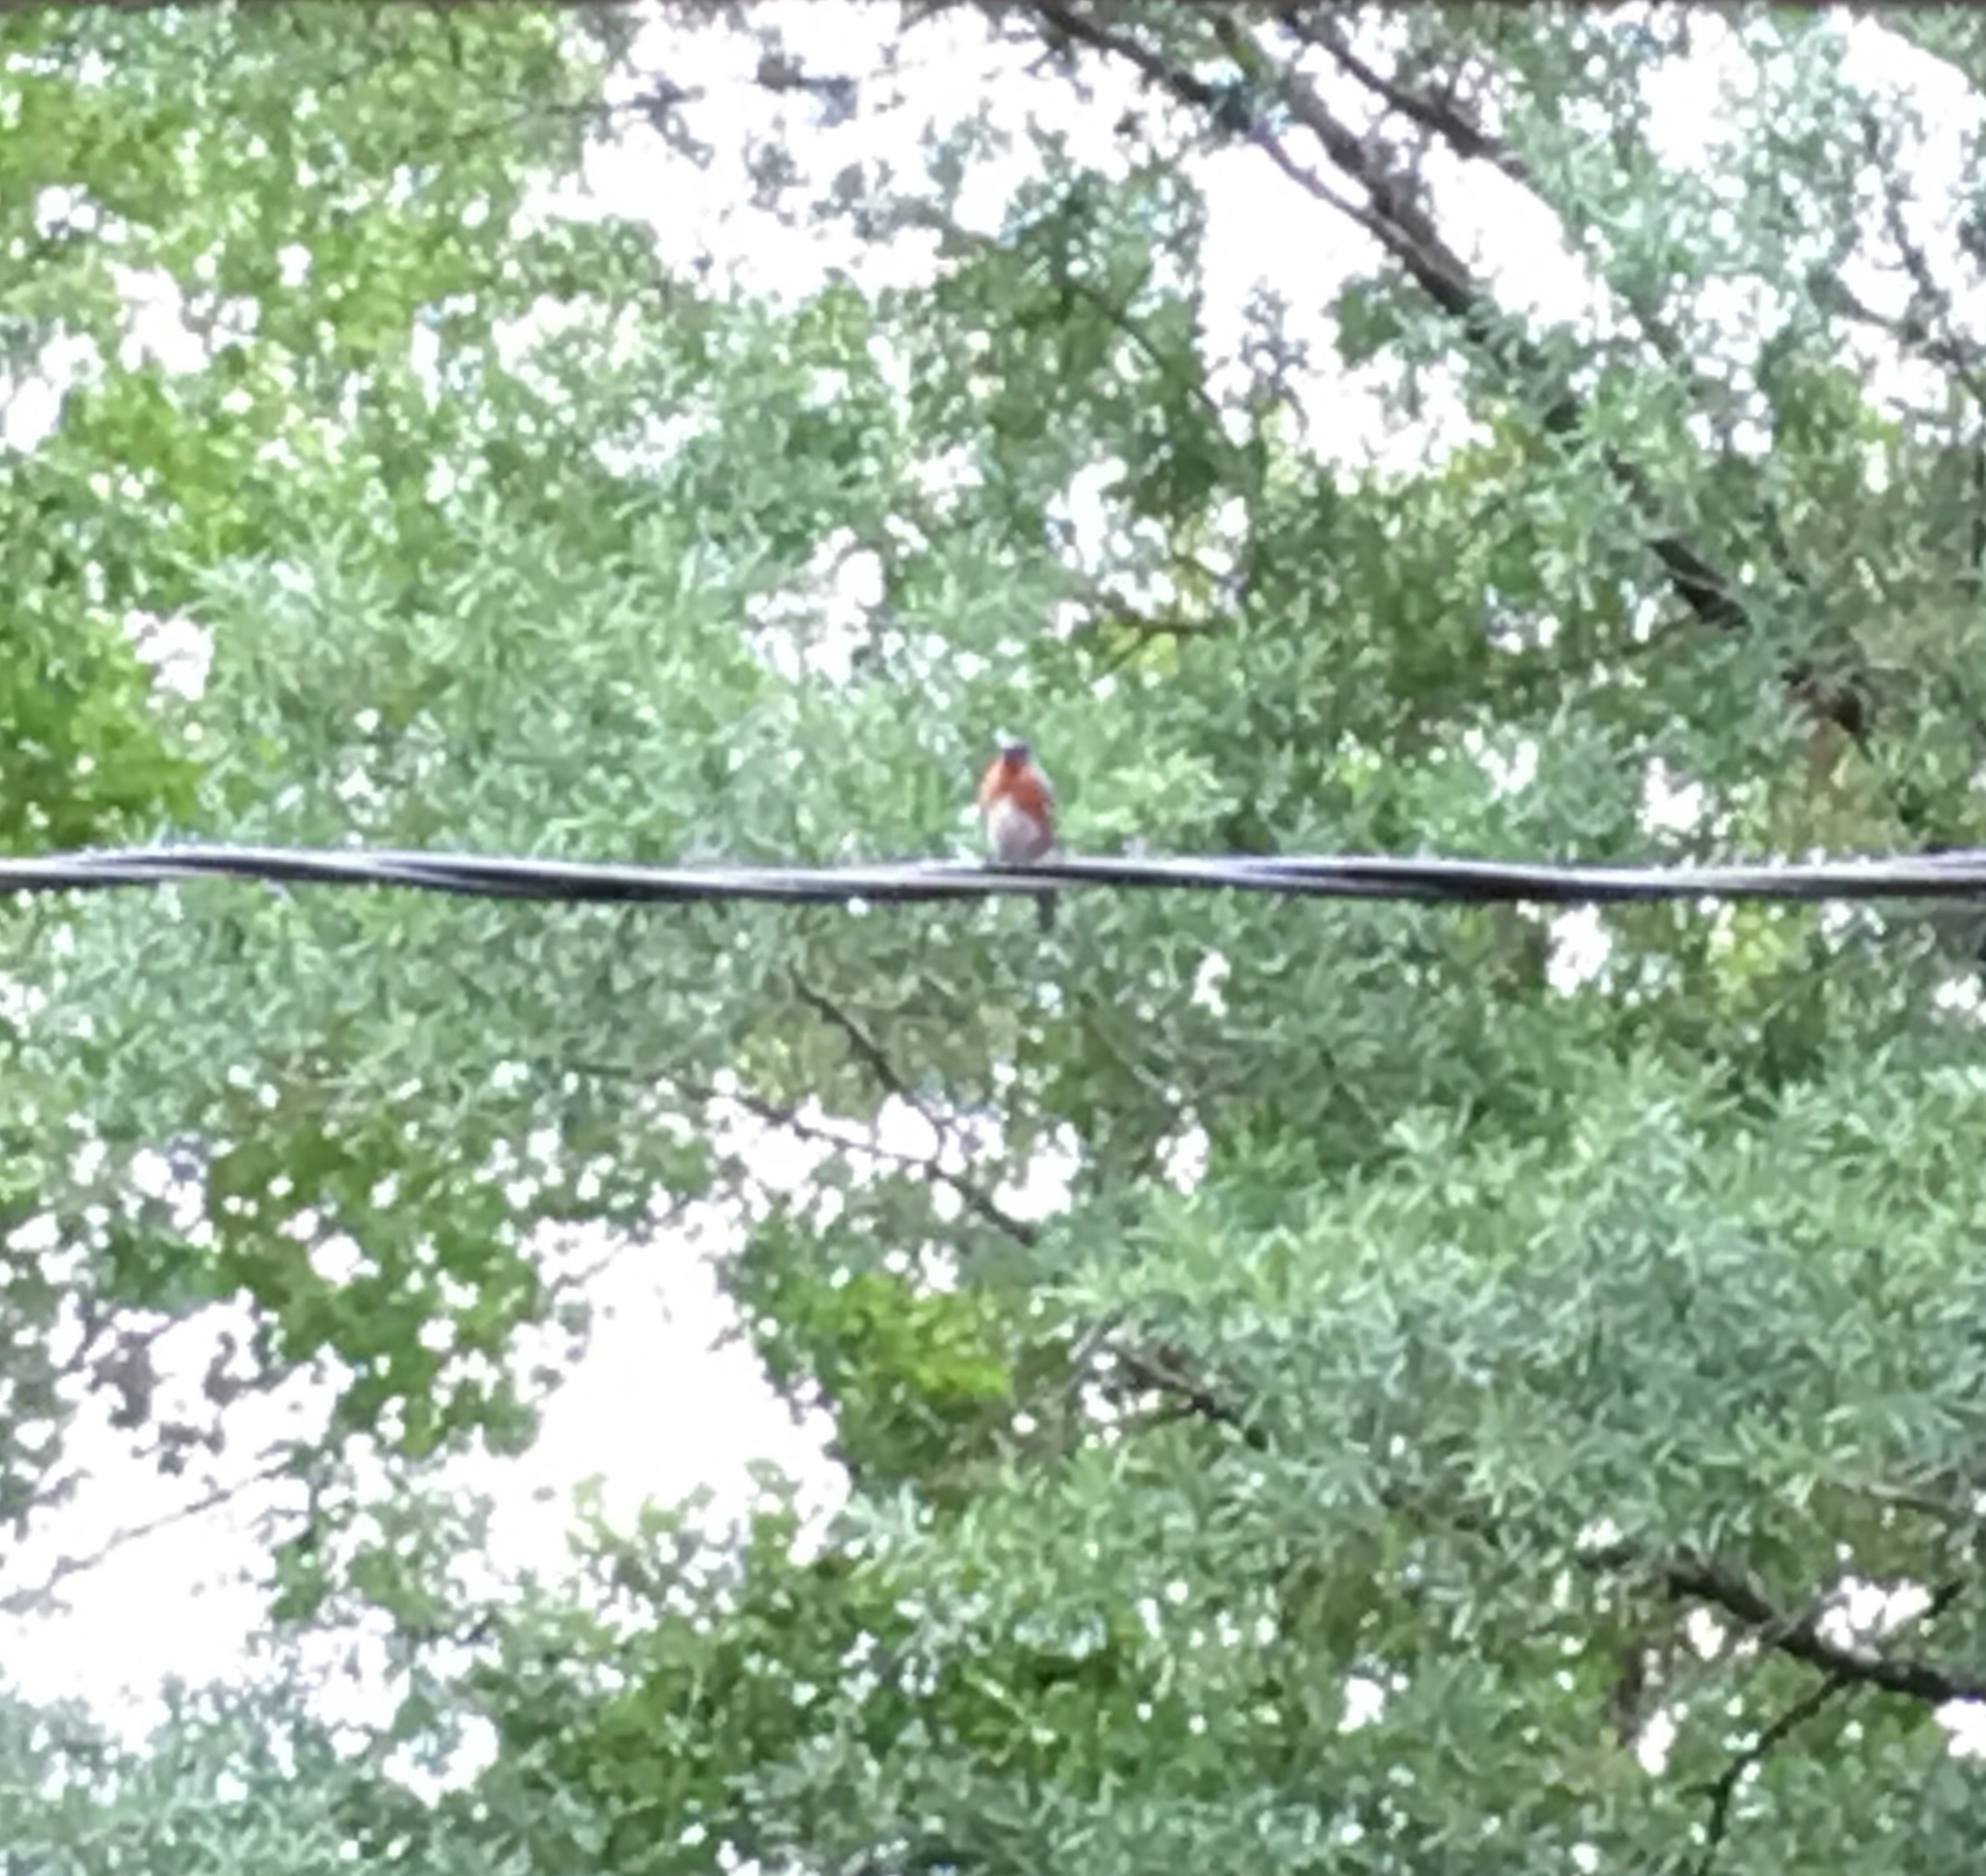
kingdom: Animalia
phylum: Chordata
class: Aves
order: Passeriformes
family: Turdidae
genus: Sialia
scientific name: Sialia sialis
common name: Eastern bluebird
